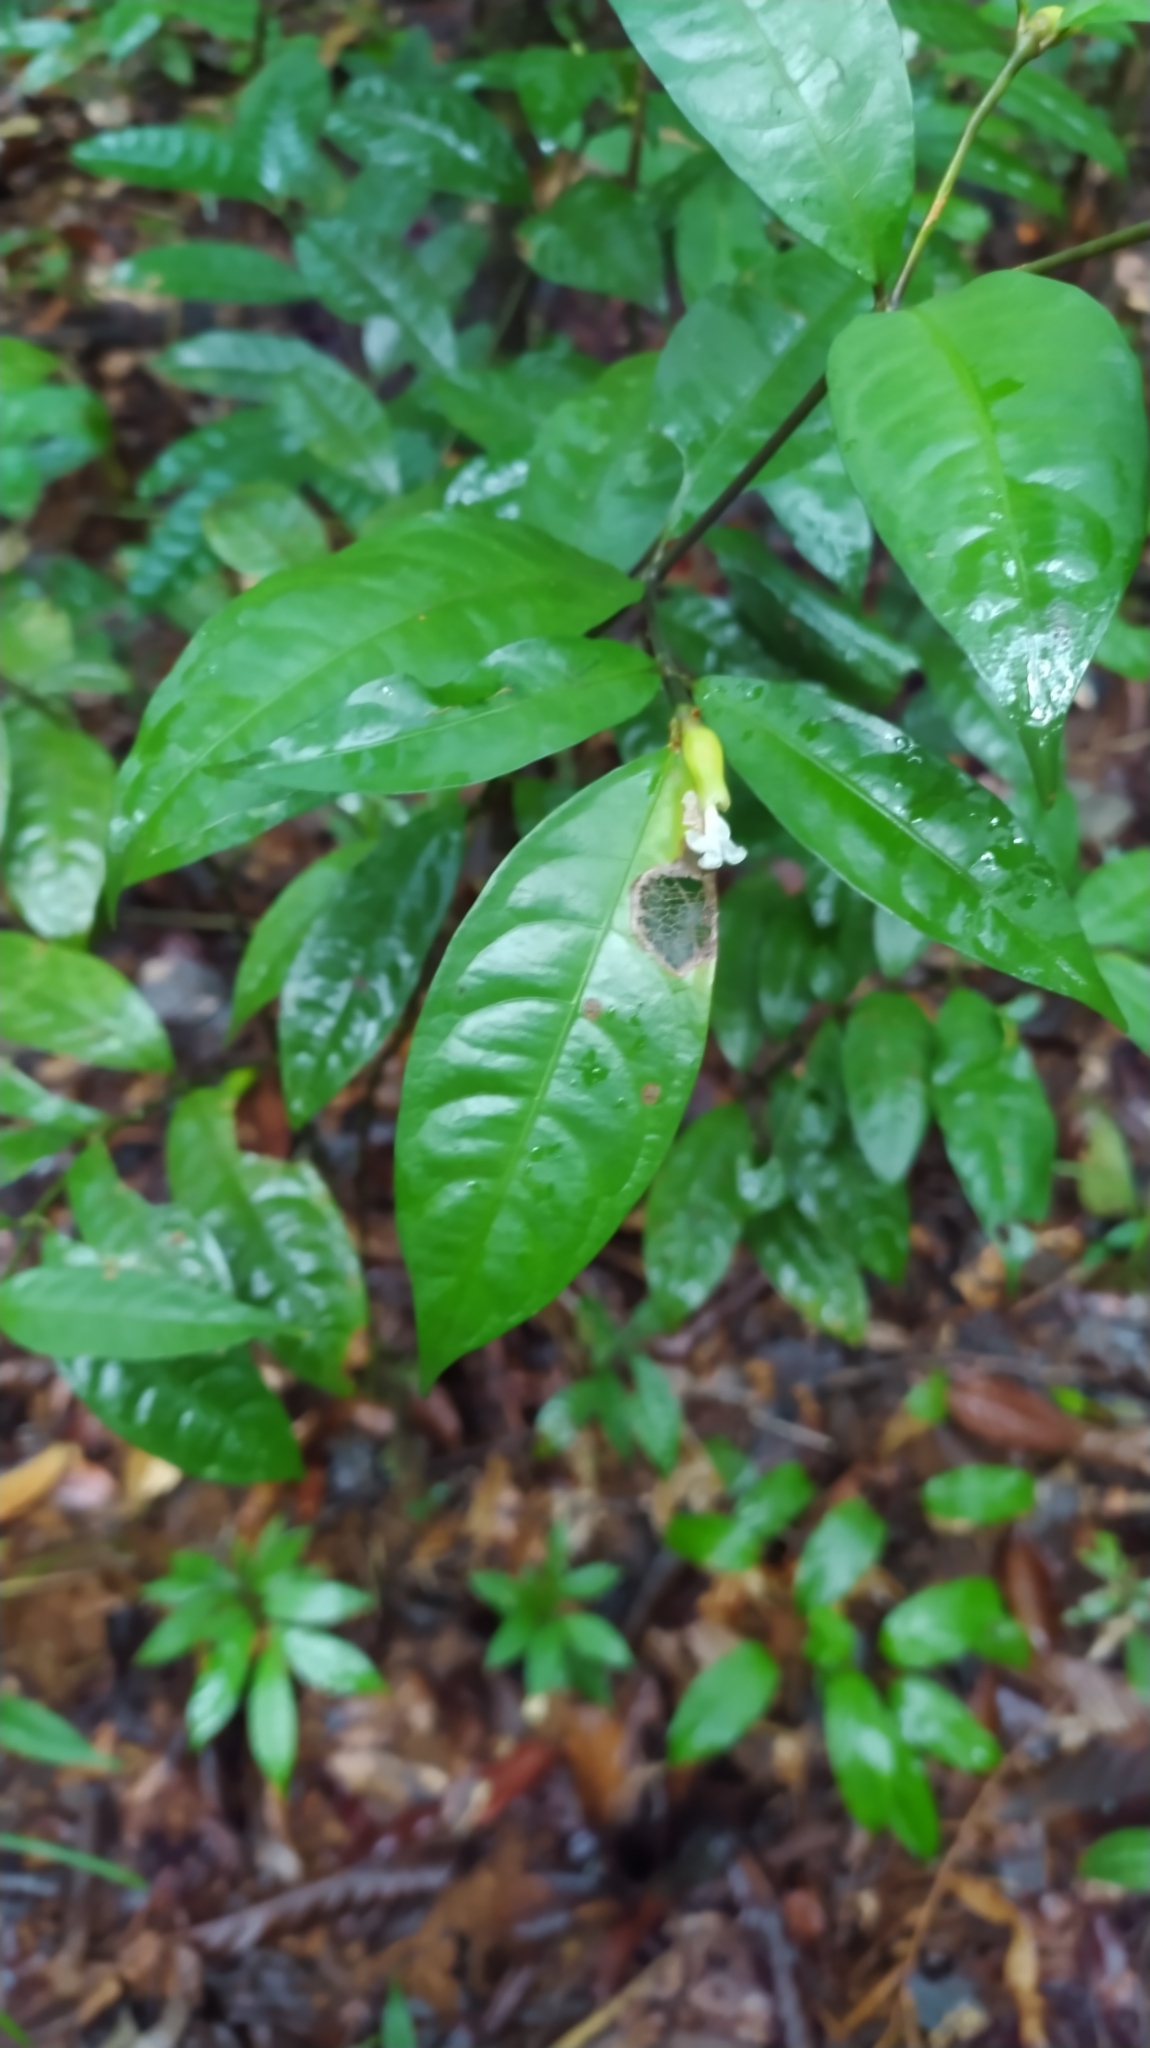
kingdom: Plantae
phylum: Tracheophyta
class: Magnoliopsida
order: Gentianales
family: Rubiaceae
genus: Palicourea
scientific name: Palicourea oblonga
